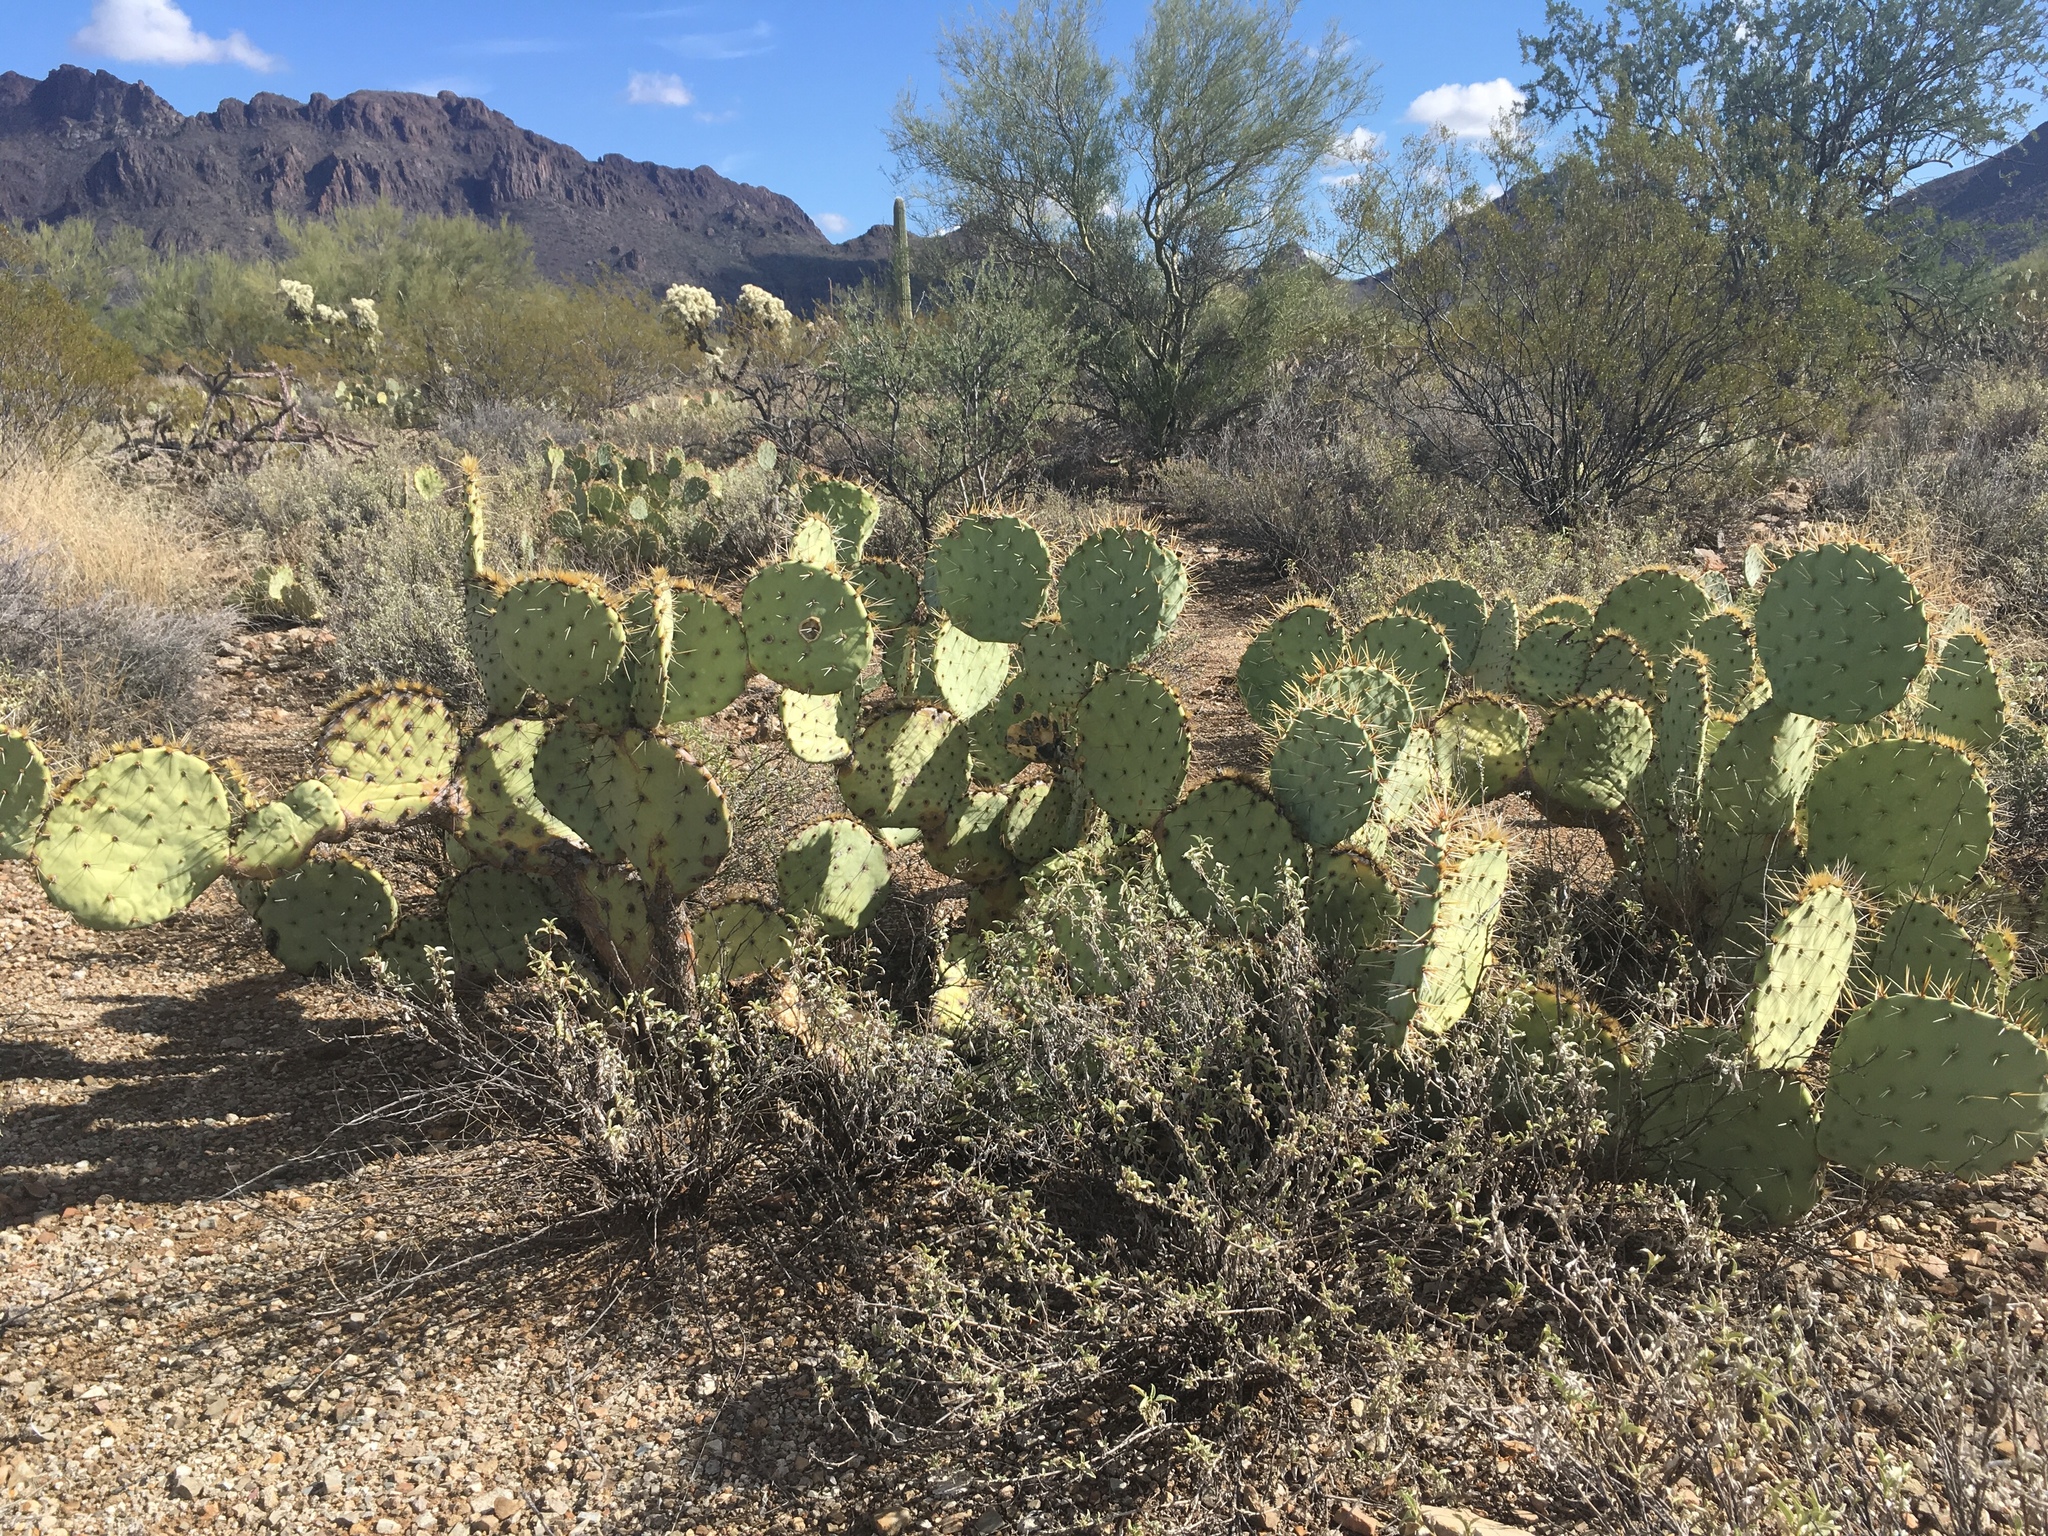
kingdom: Plantae
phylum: Tracheophyta
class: Magnoliopsida
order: Caryophyllales
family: Cactaceae
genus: Opuntia
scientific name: Opuntia engelmannii
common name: Cactus-apple
